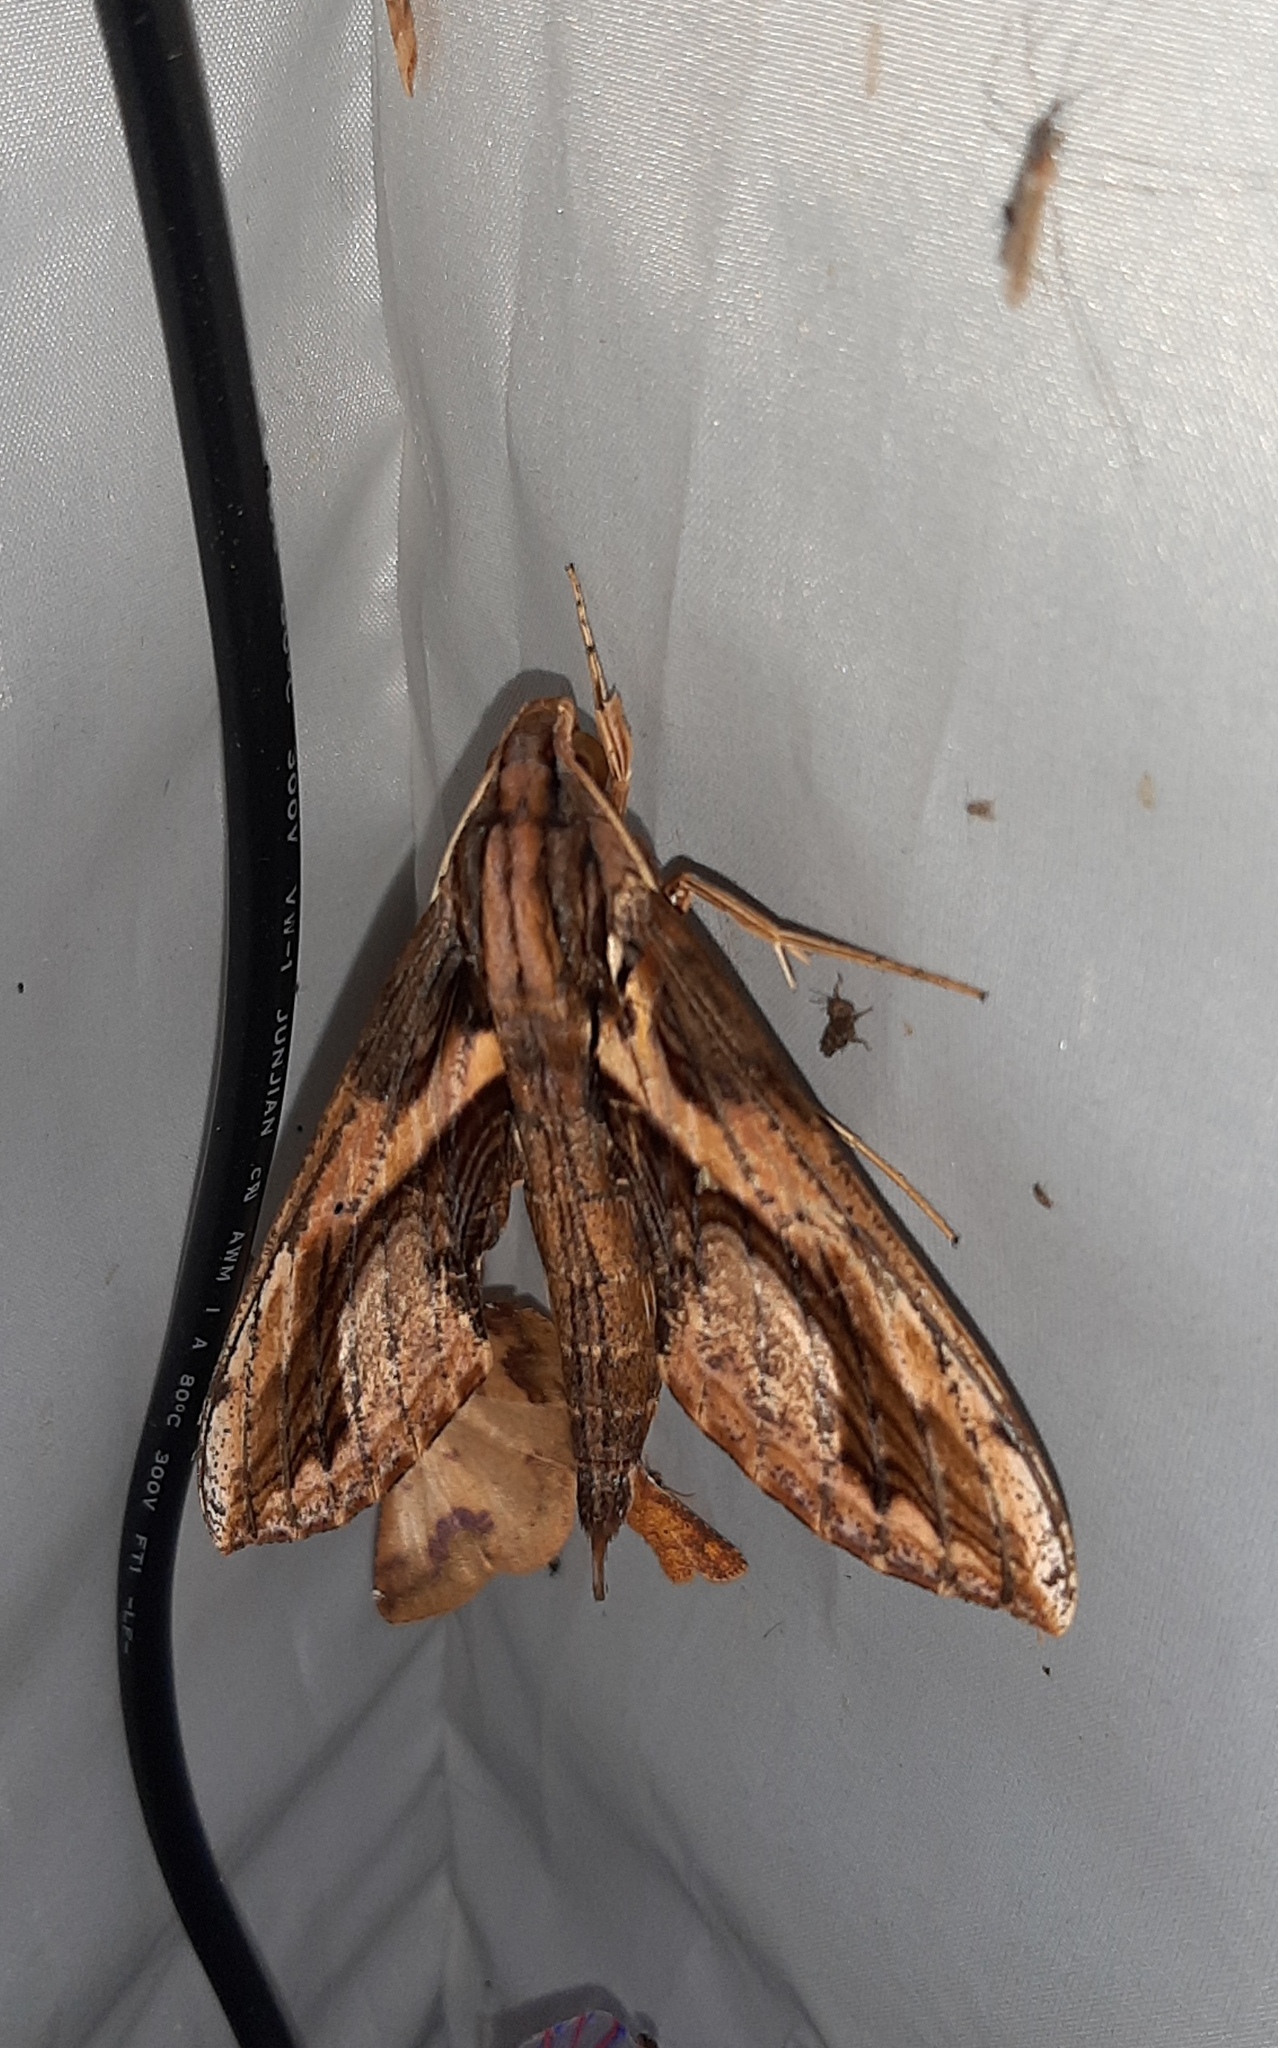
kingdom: Animalia
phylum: Arthropoda
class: Insecta
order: Lepidoptera
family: Sphingidae
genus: Xylophanes
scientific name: Xylophanes ceratomioides
